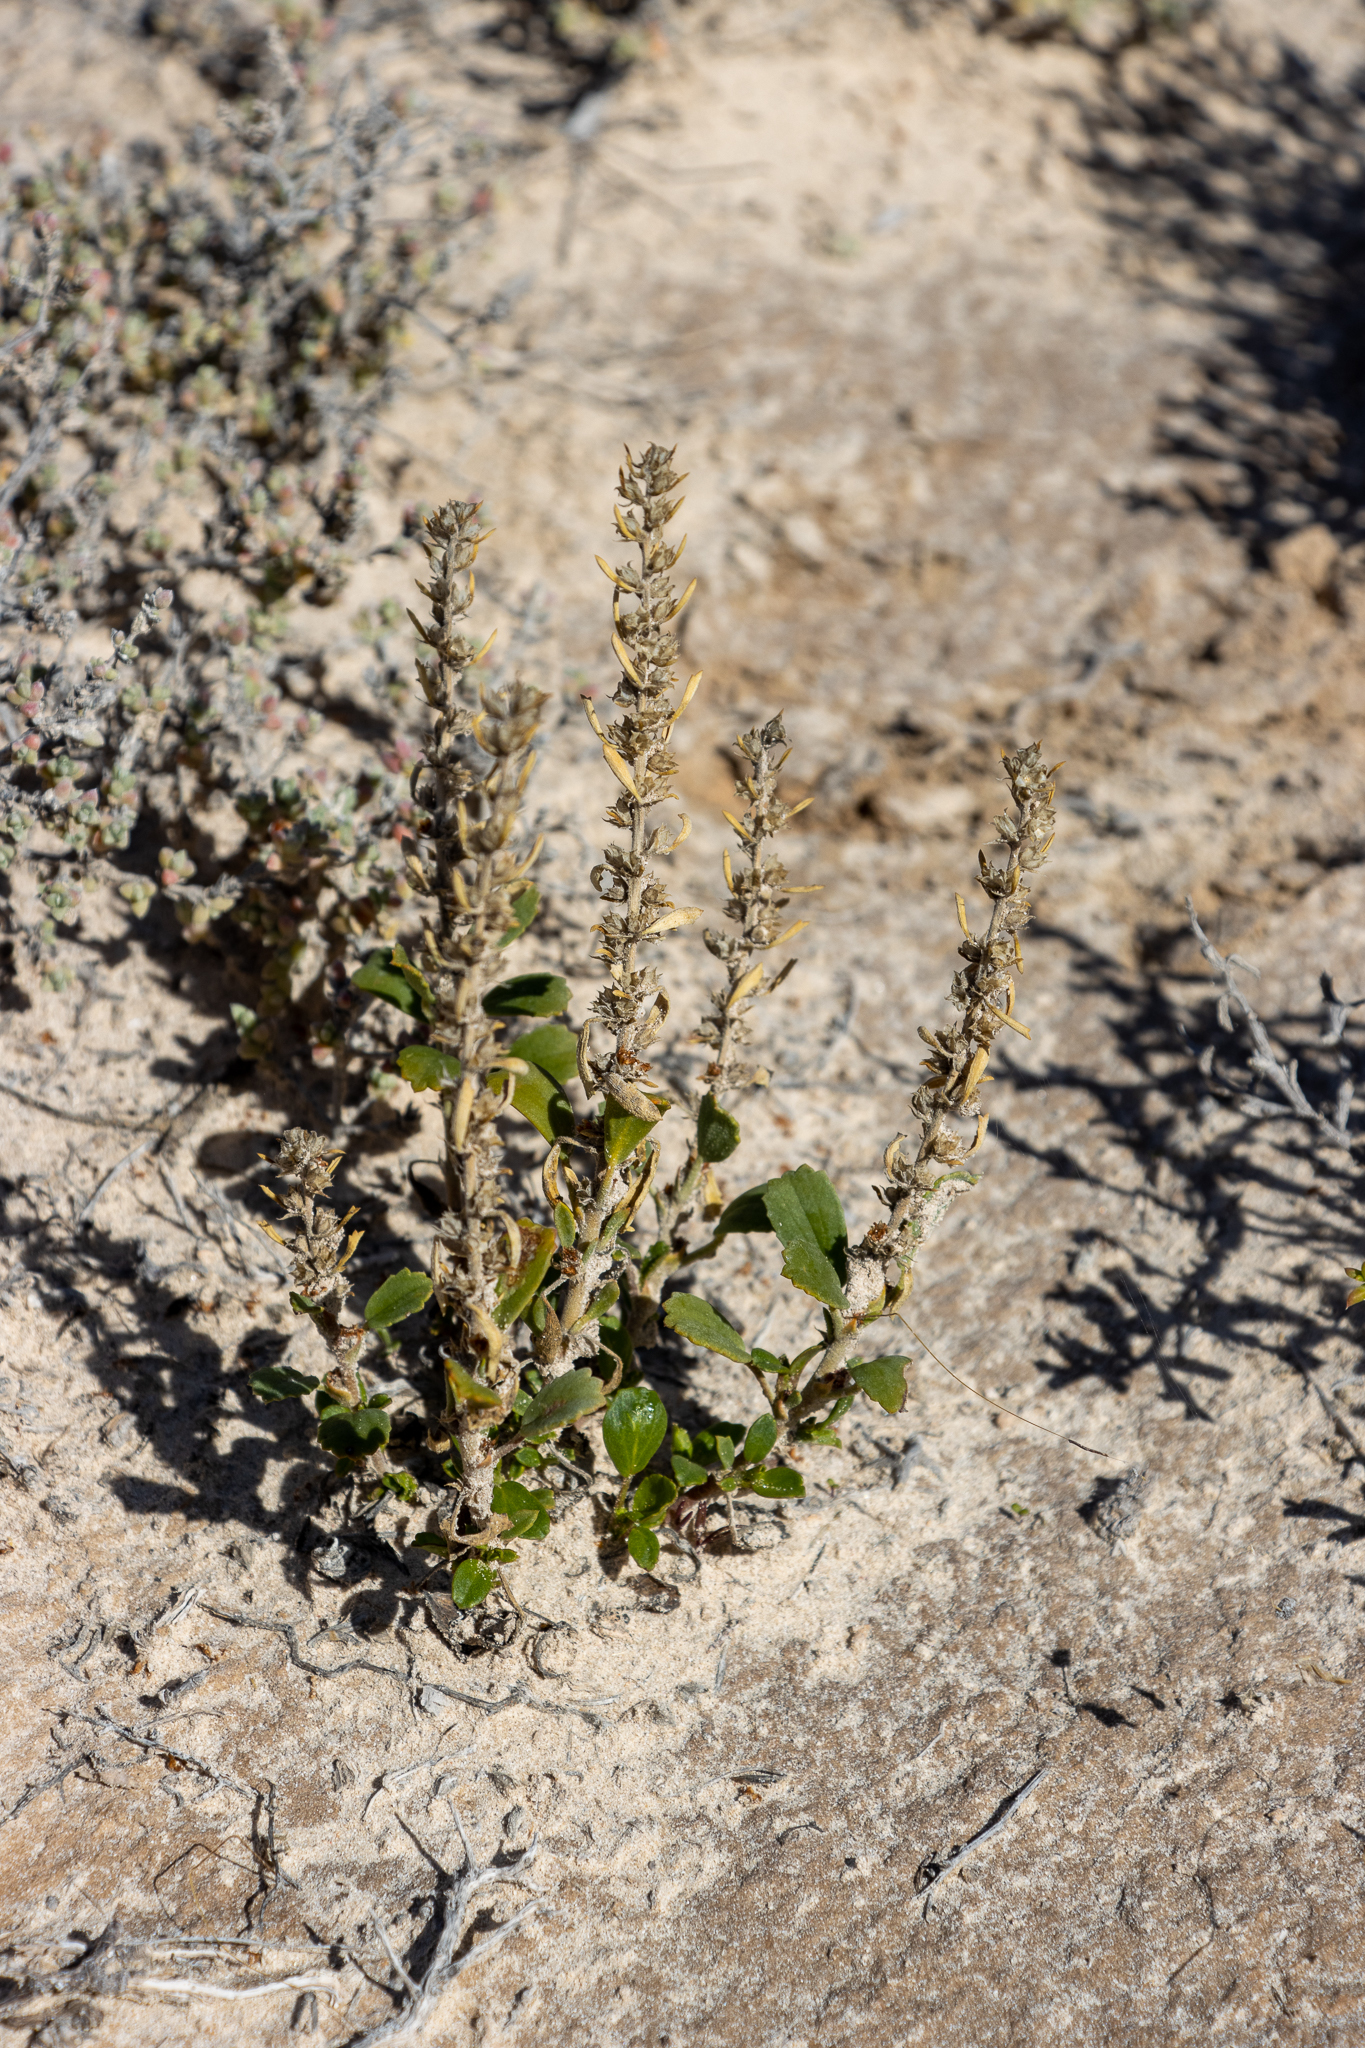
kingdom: Plantae
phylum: Tracheophyta
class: Magnoliopsida
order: Malvales
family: Malvaceae
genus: Lawrencia
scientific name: Lawrencia glomerata
